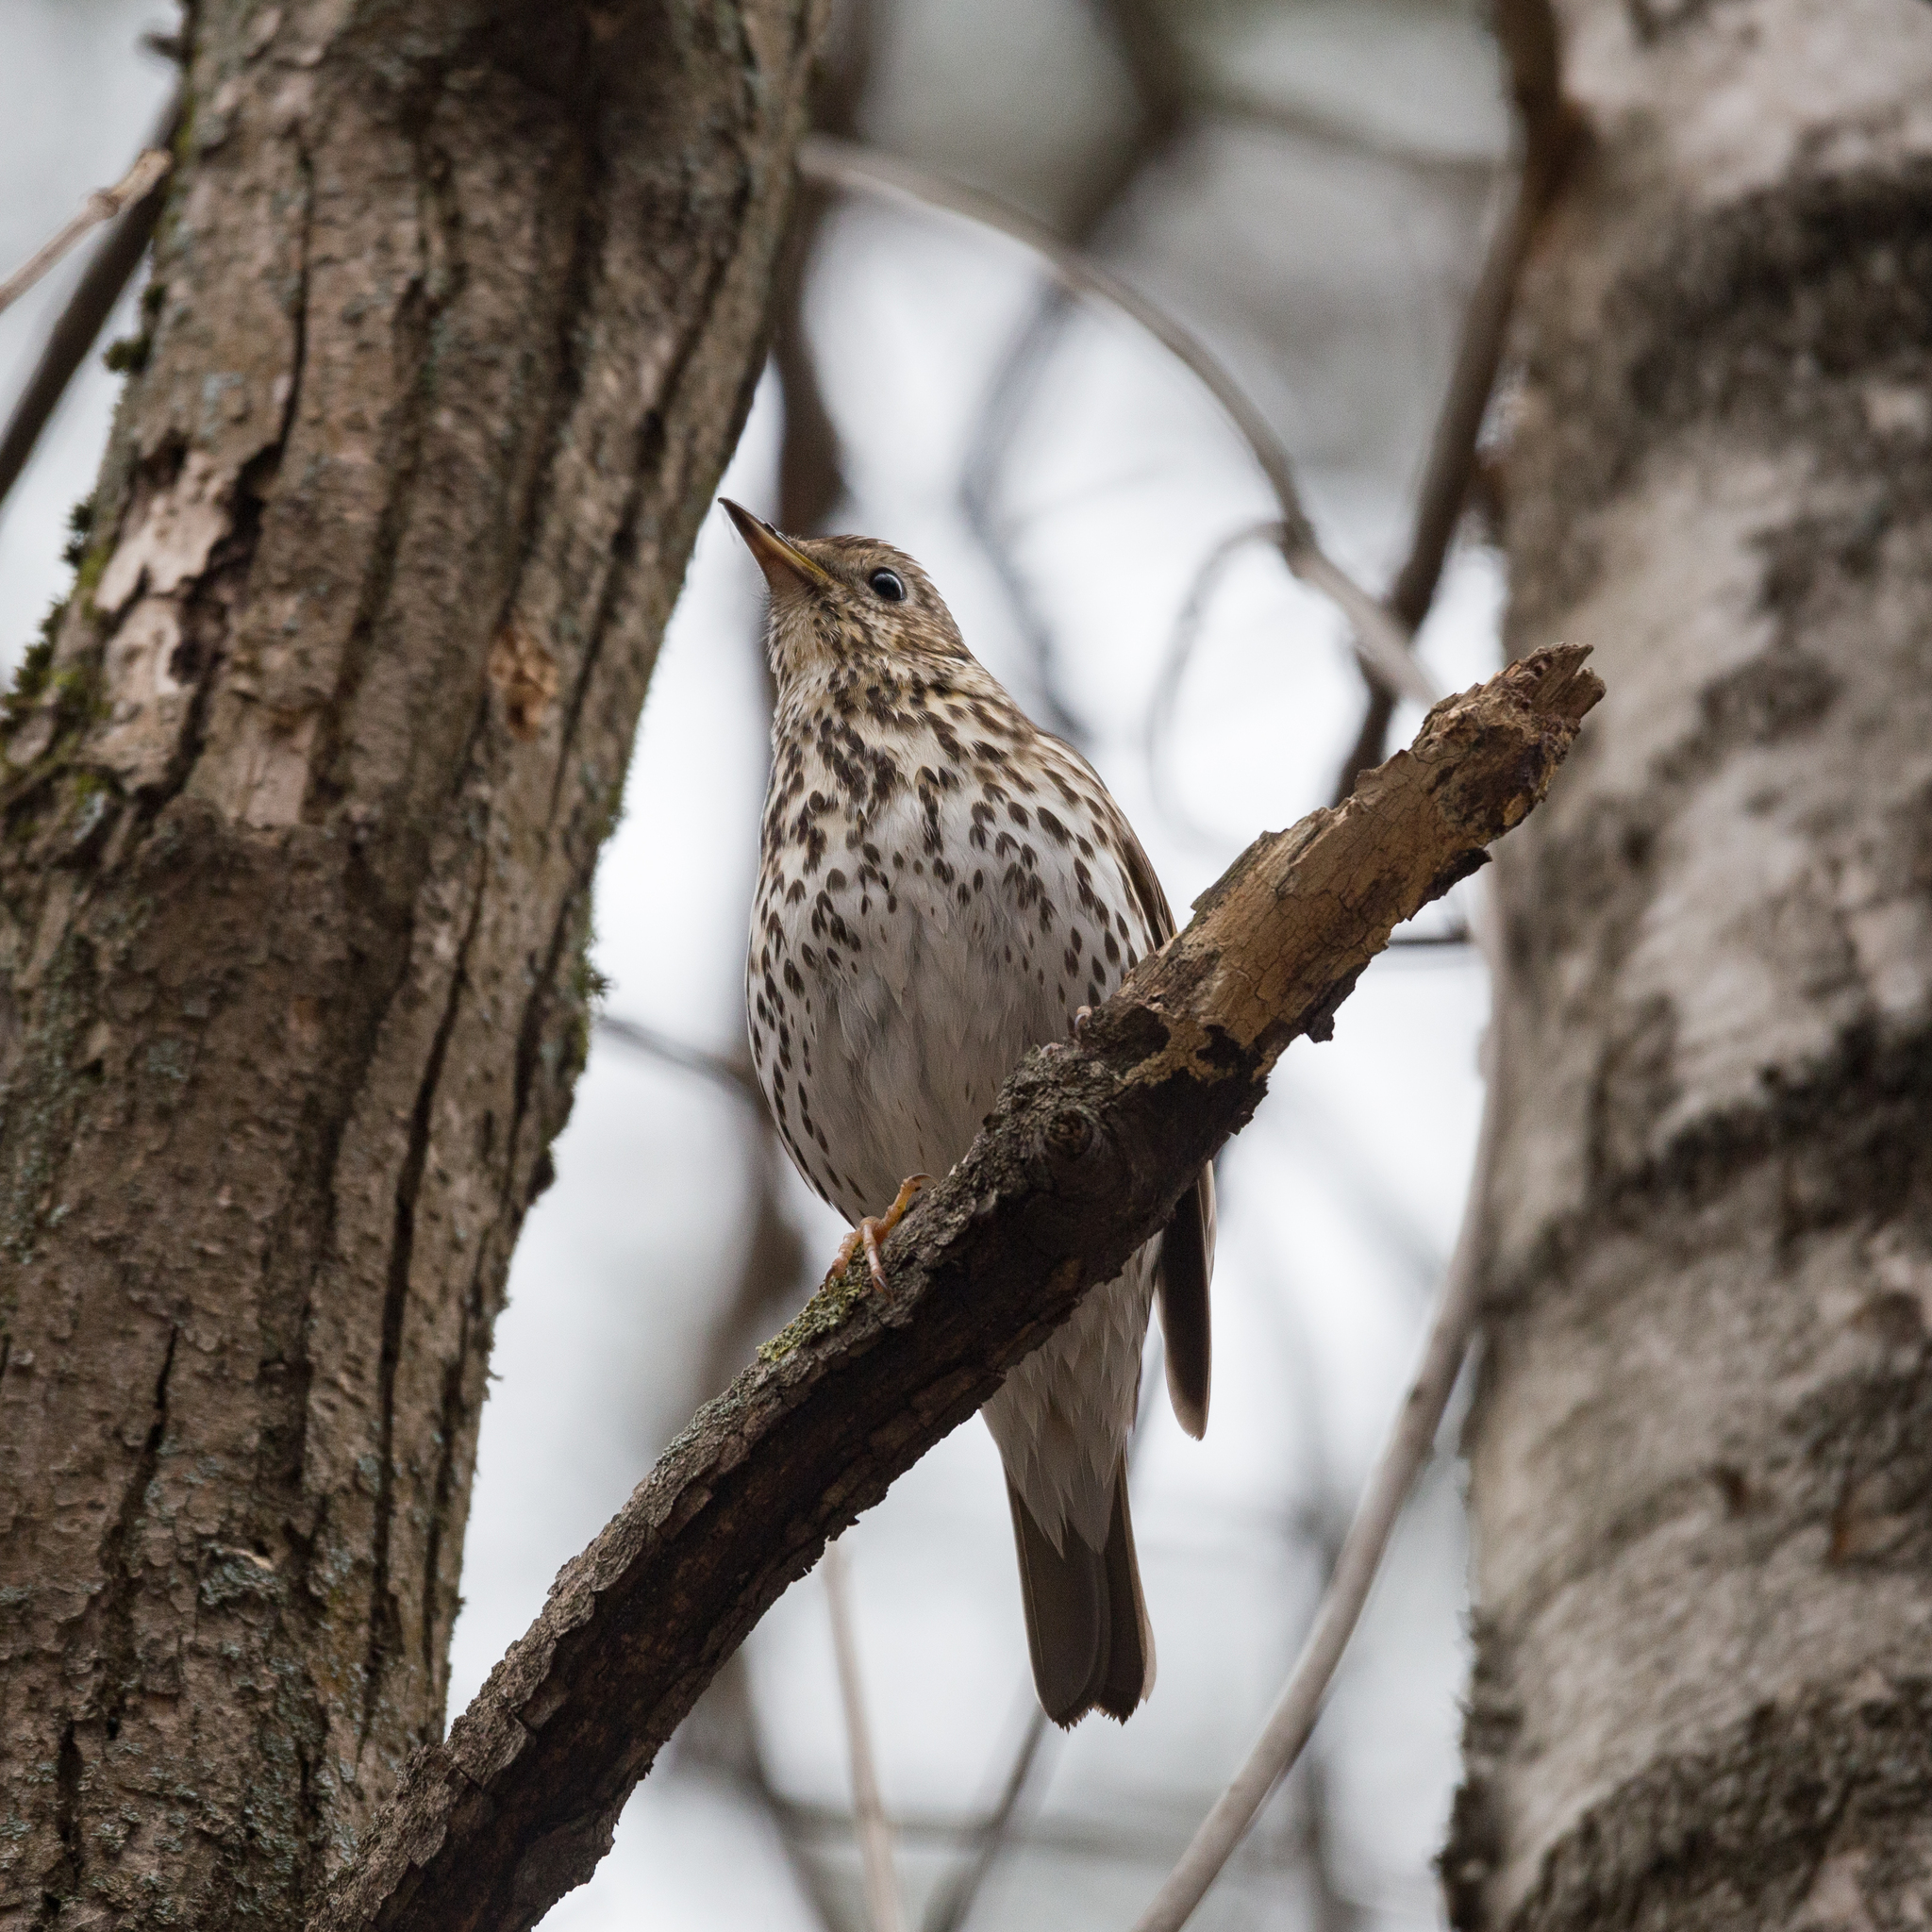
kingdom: Animalia
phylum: Chordata
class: Aves
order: Passeriformes
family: Turdidae
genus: Turdus
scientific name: Turdus philomelos
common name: Song thrush
